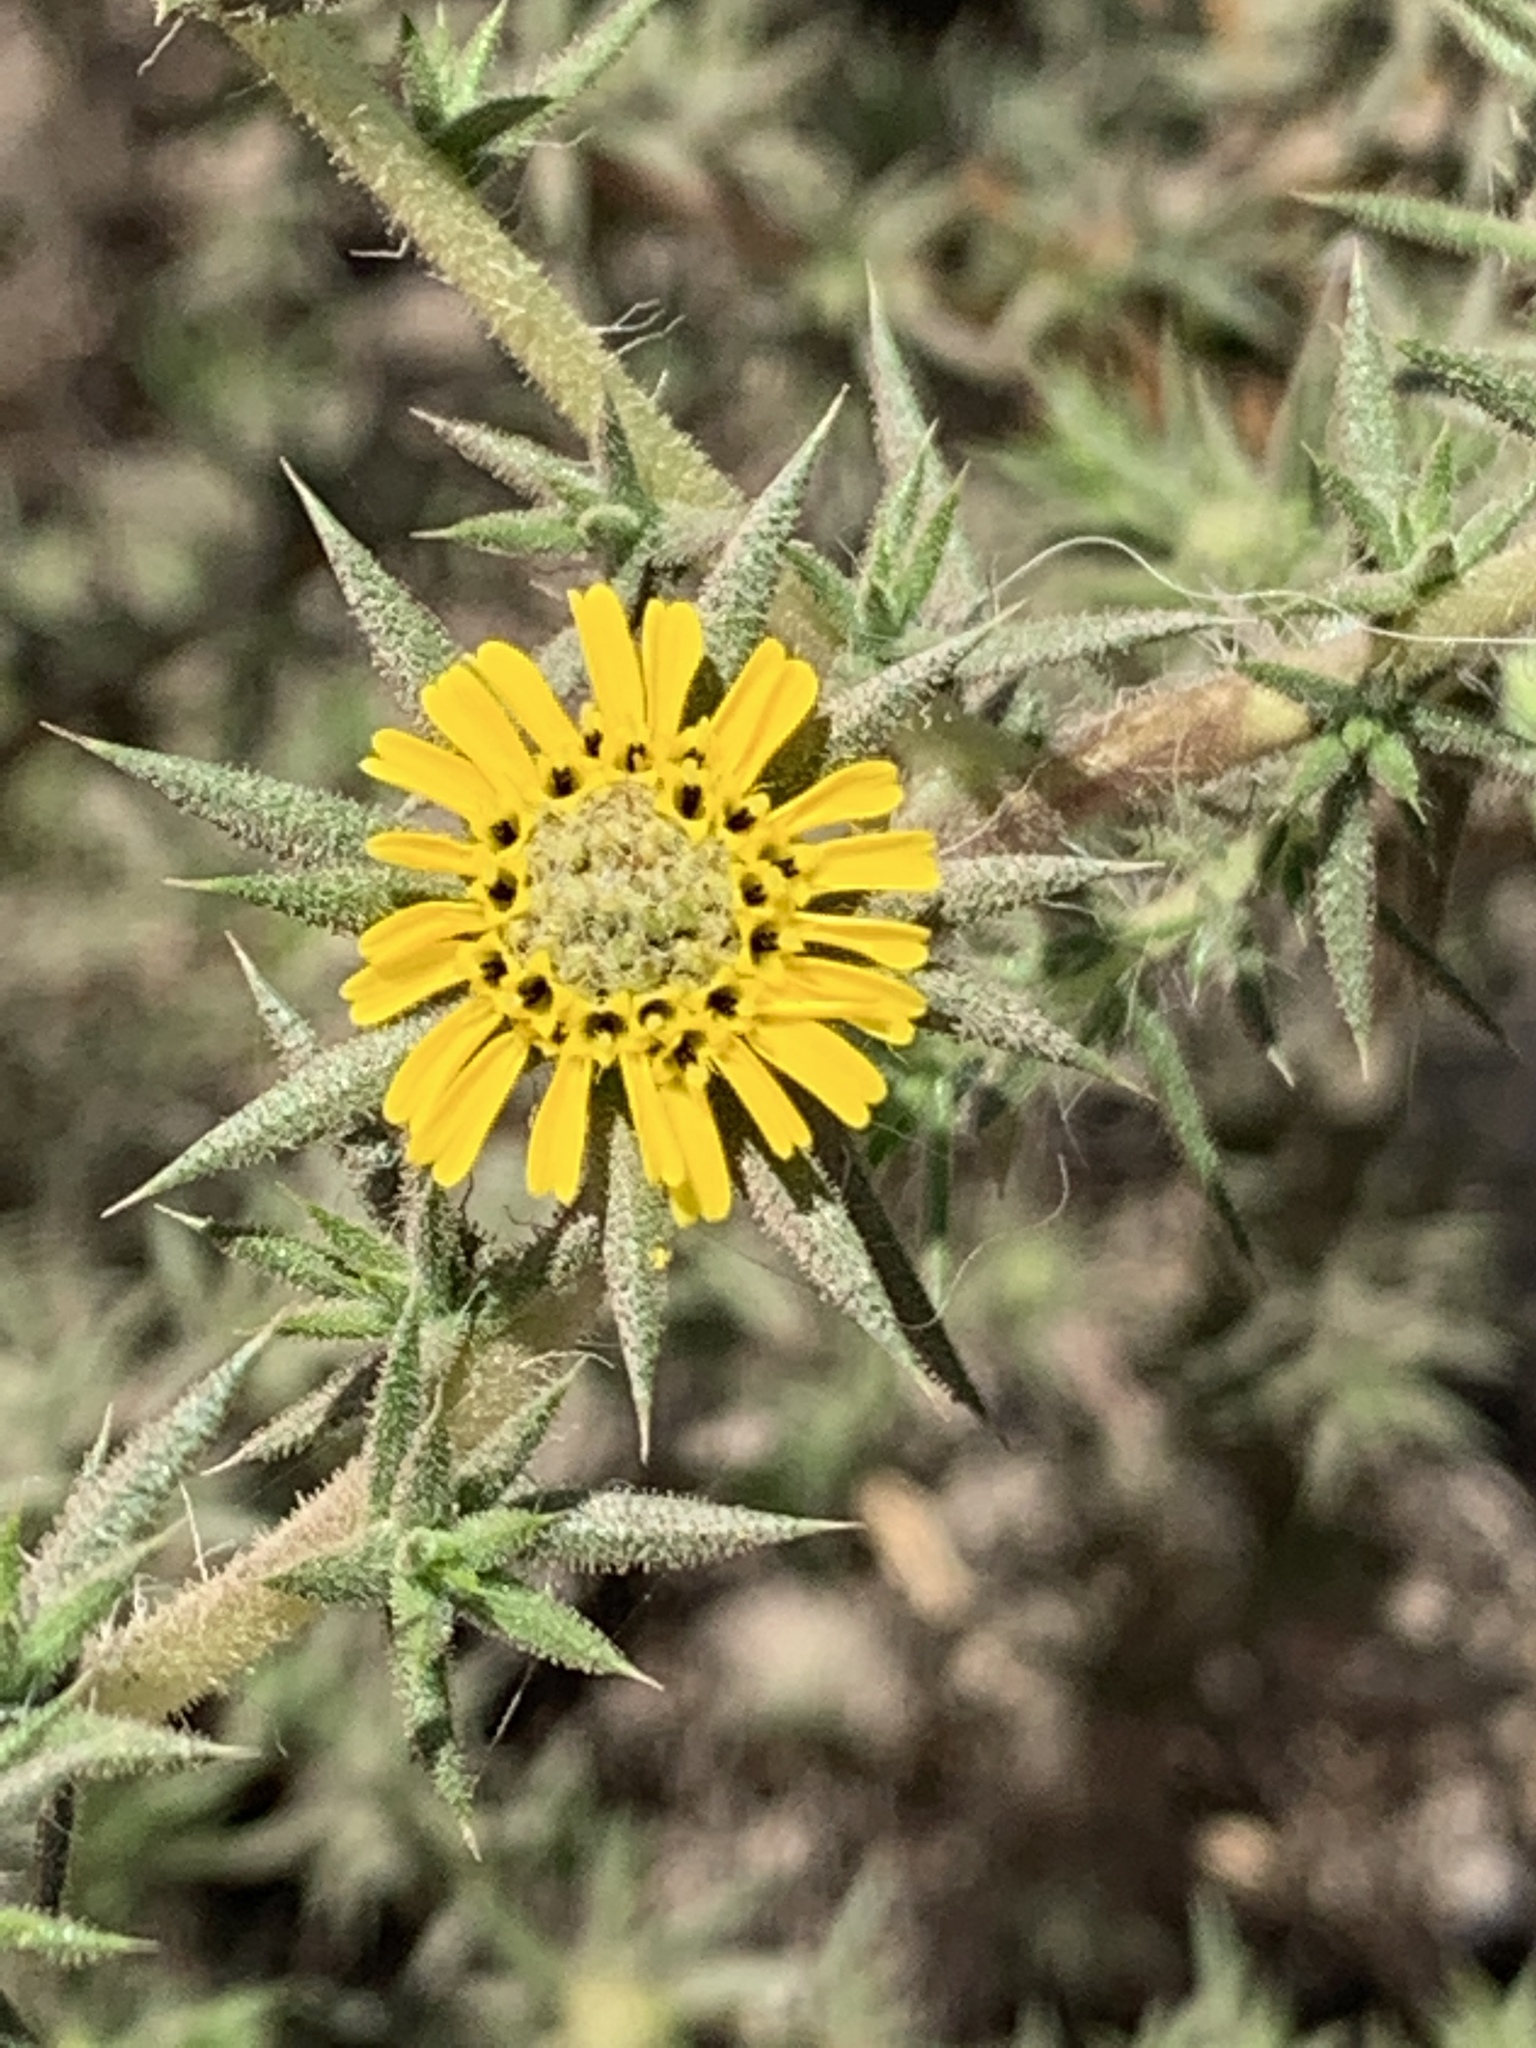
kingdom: Plantae
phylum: Tracheophyta
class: Magnoliopsida
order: Asterales
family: Asteraceae
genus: Centromadia
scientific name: Centromadia parryi
